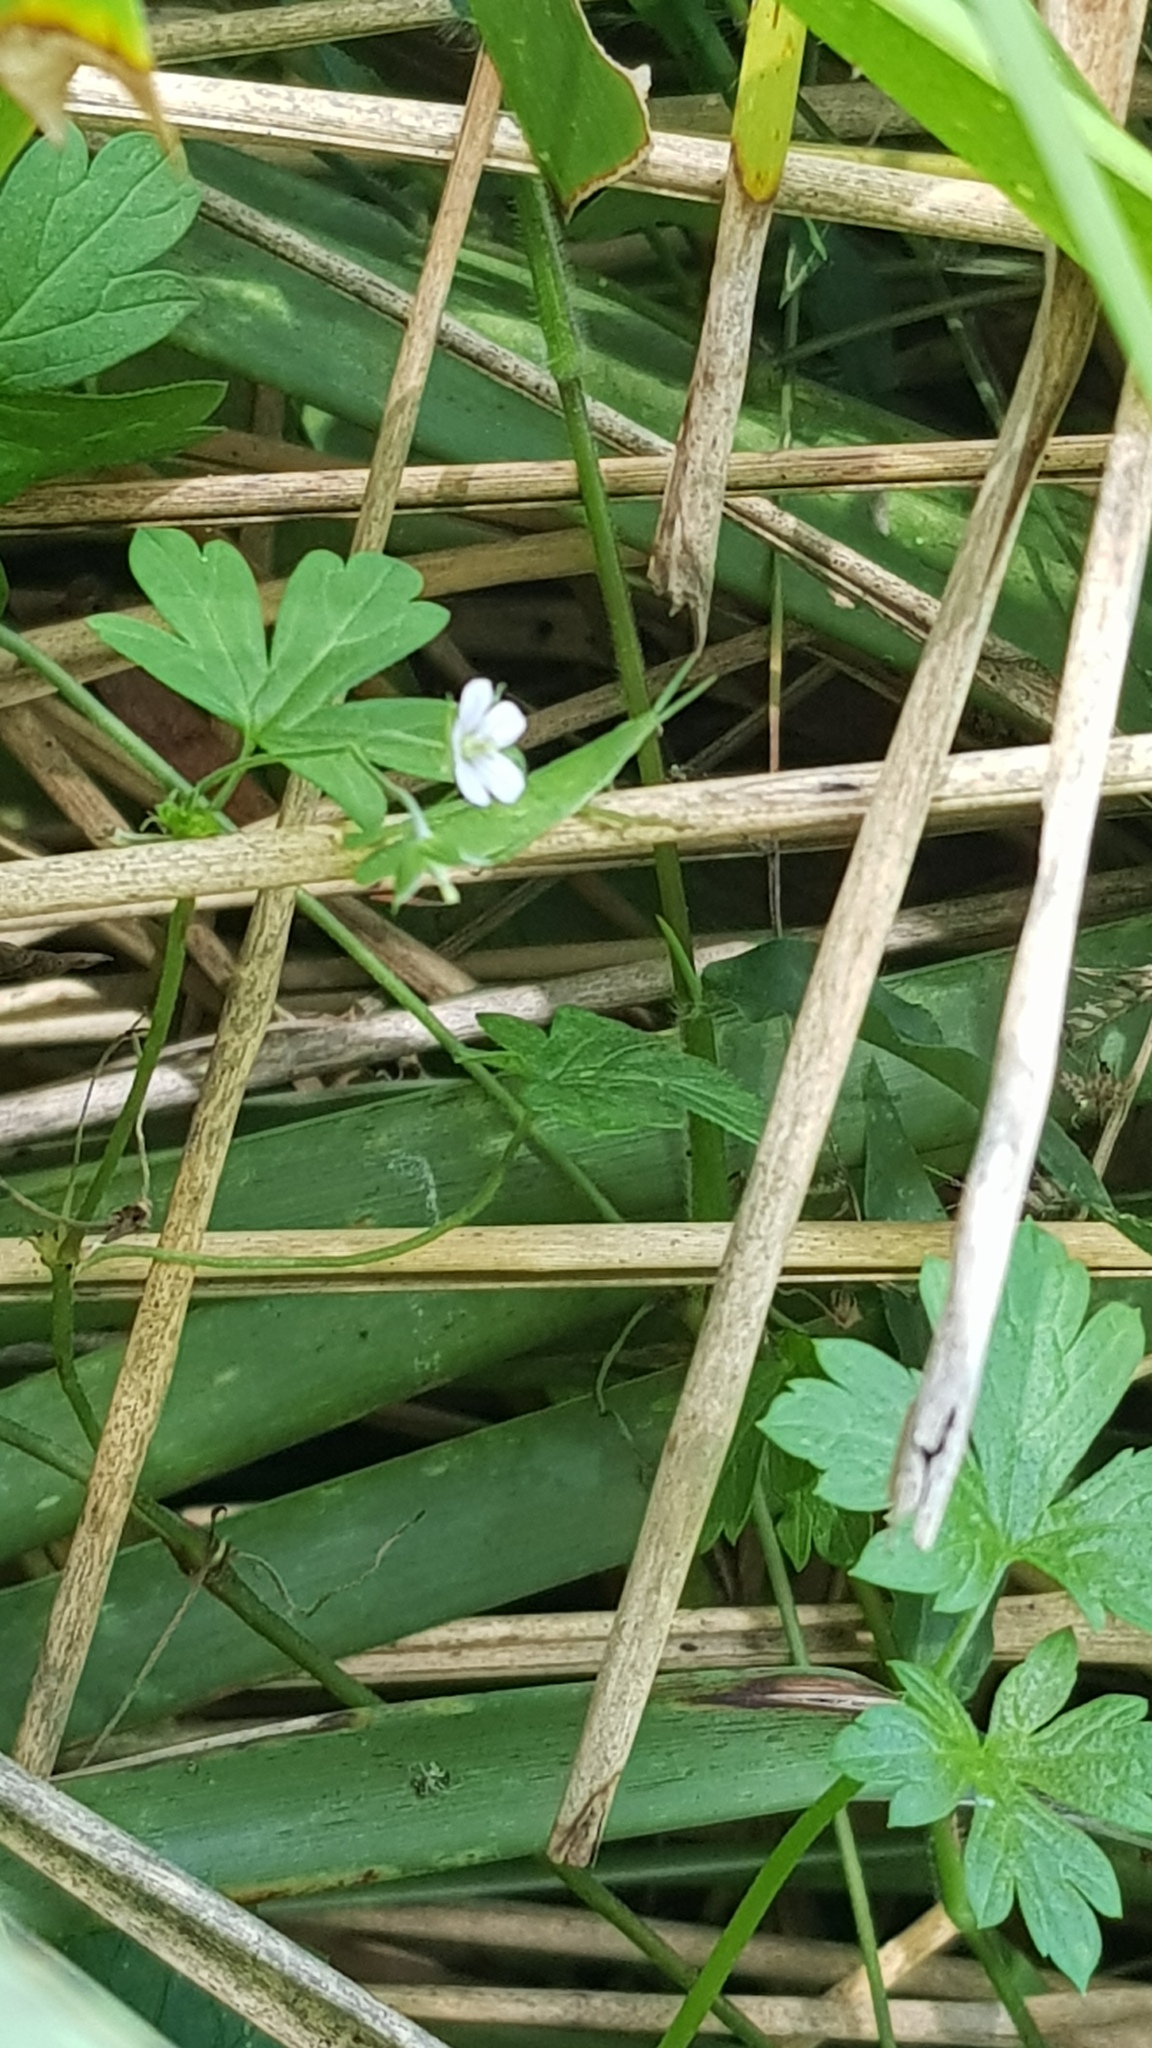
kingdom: Animalia
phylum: Arthropoda
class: Insecta
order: Orthoptera
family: Pyrgomorphidae
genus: Atractomorpha
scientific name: Atractomorpha australis
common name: Australian grass pyrgomorph
